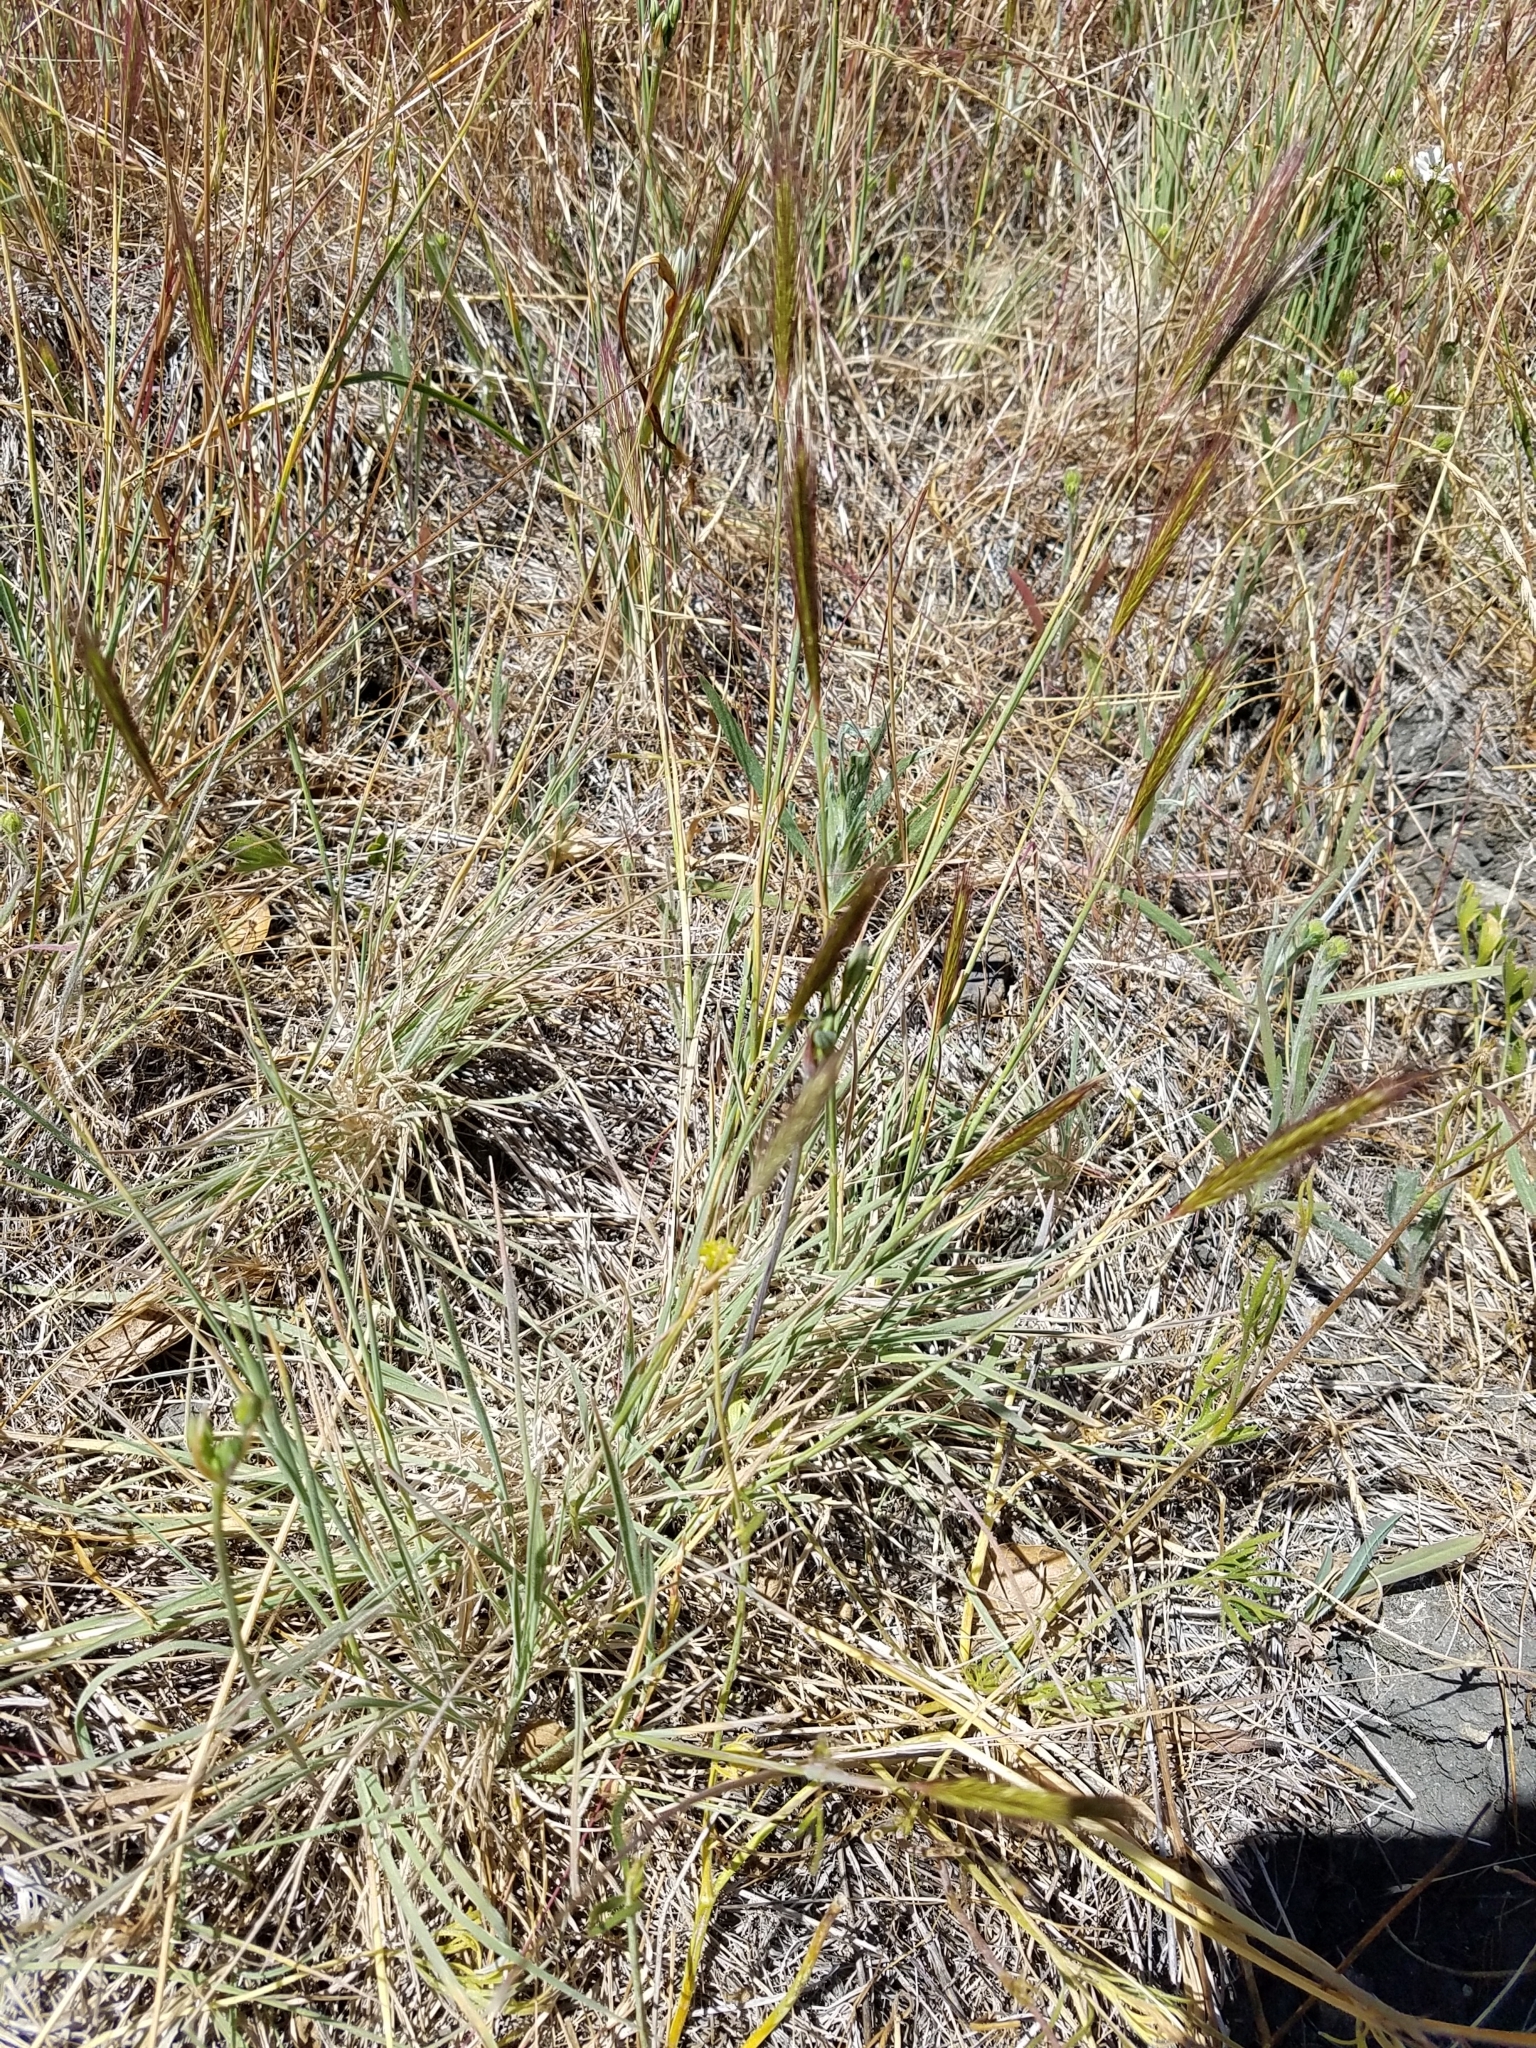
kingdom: Plantae
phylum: Tracheophyta
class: Liliopsida
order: Poales
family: Poaceae
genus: Hordeum
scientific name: Hordeum californicum
